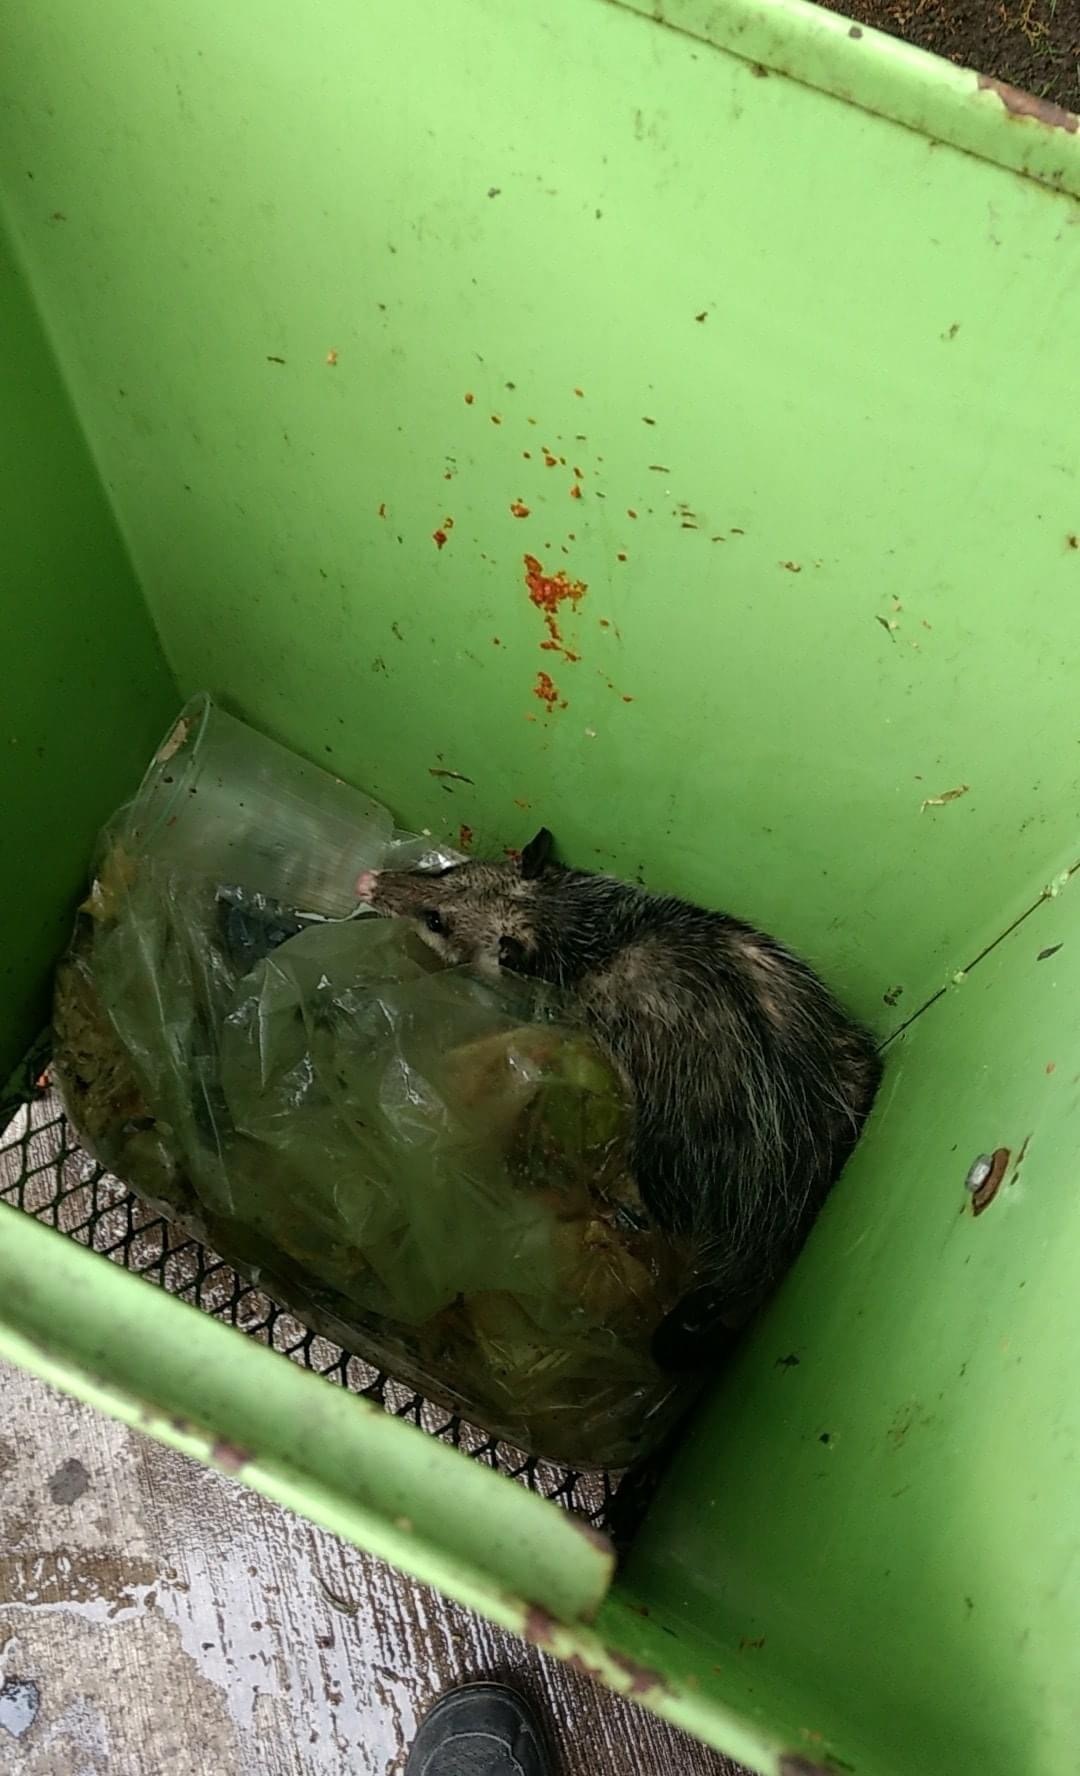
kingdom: Animalia
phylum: Chordata
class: Mammalia
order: Didelphimorphia
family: Didelphidae
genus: Didelphis
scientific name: Didelphis virginiana
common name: Virginia opossum
